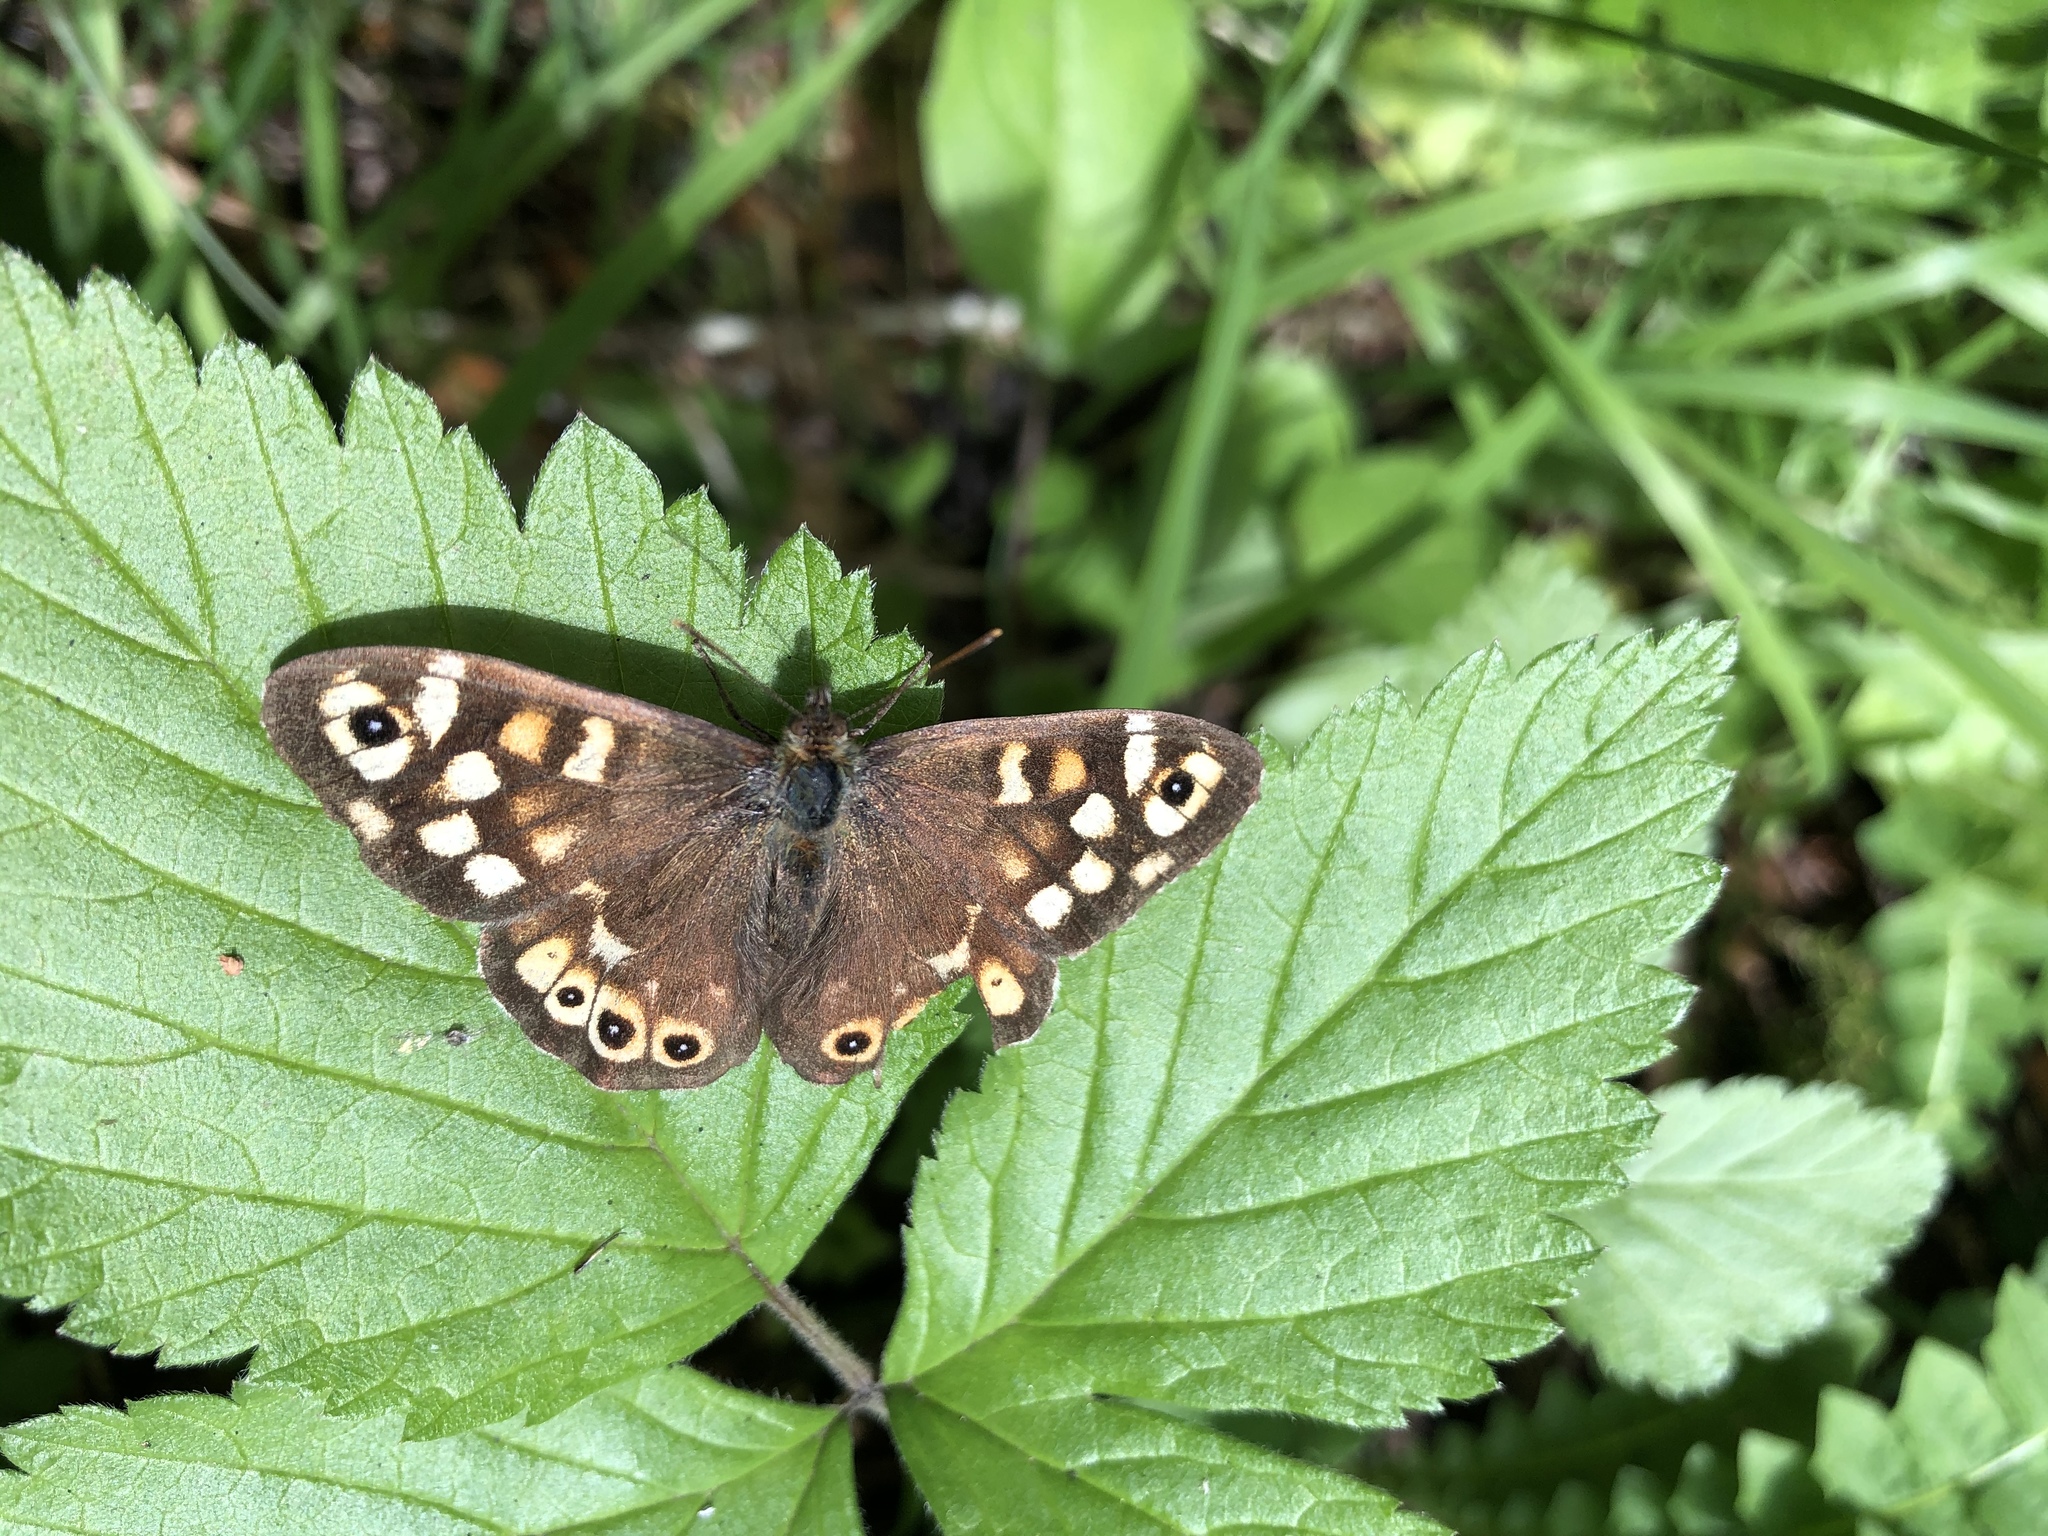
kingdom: Animalia
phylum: Arthropoda
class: Insecta
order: Lepidoptera
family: Nymphalidae
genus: Pararge
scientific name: Pararge aegeria
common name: Speckled wood
